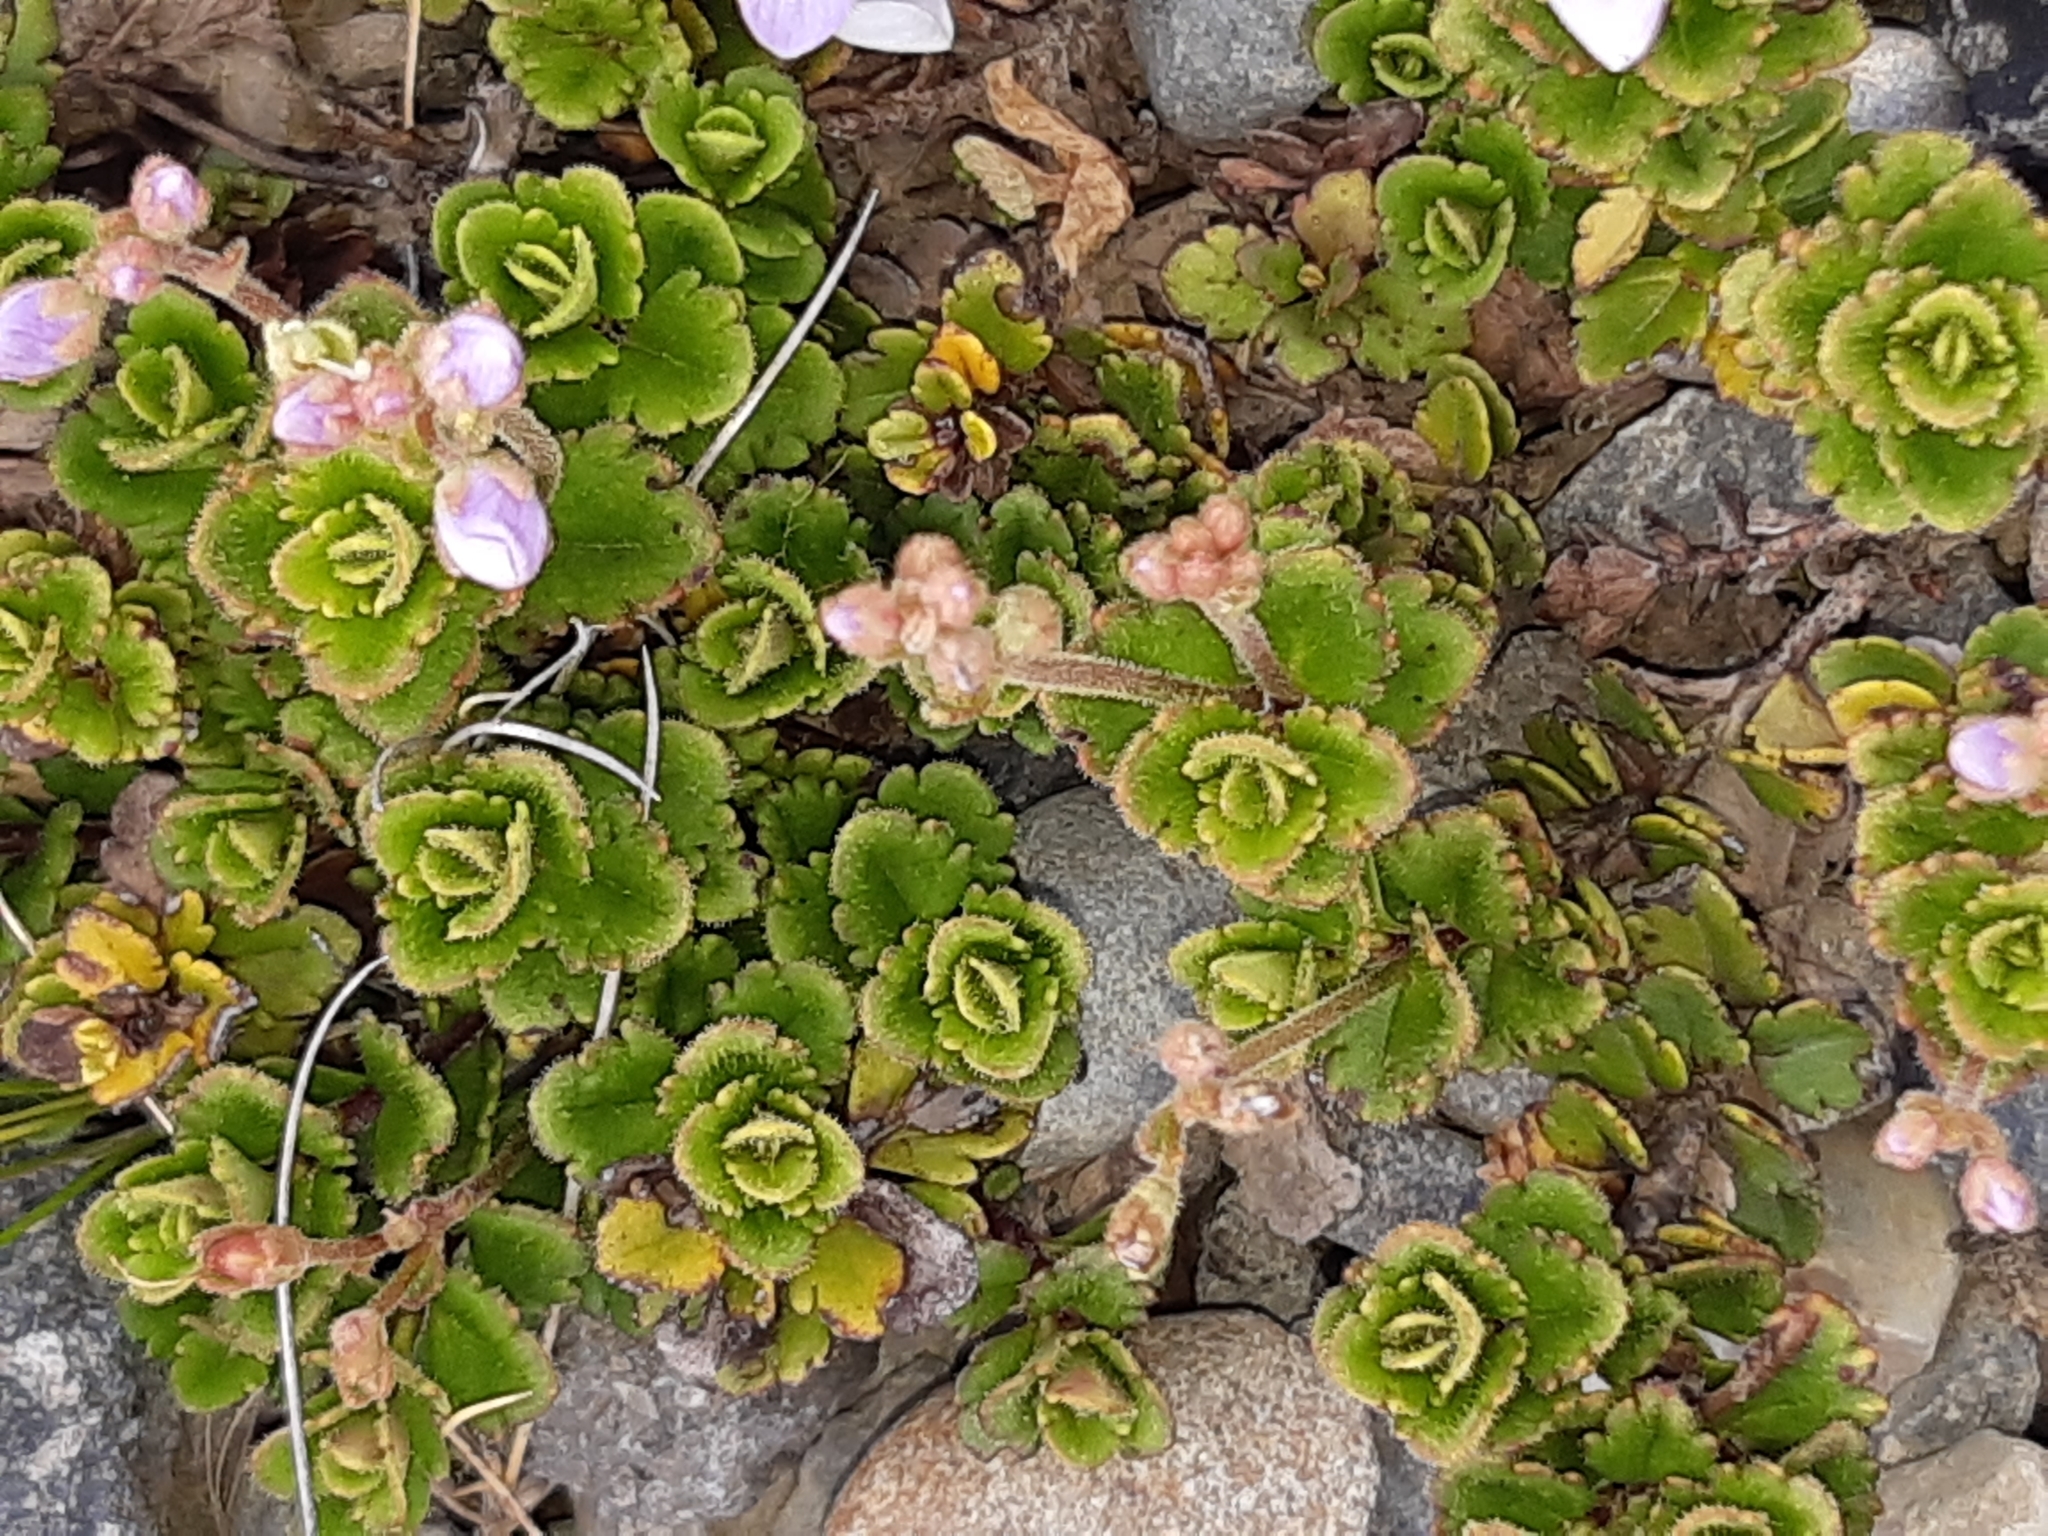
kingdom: Plantae
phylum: Tracheophyta
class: Magnoliopsida
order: Lamiales
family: Plantaginaceae
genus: Veronica
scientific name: Veronica hookeriana
